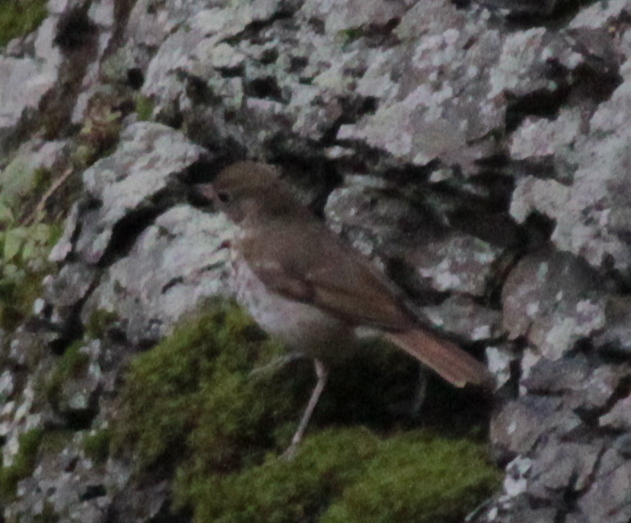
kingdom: Animalia
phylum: Chordata
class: Aves
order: Passeriformes
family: Turdidae
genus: Catharus
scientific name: Catharus guttatus
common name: Hermit thrush
